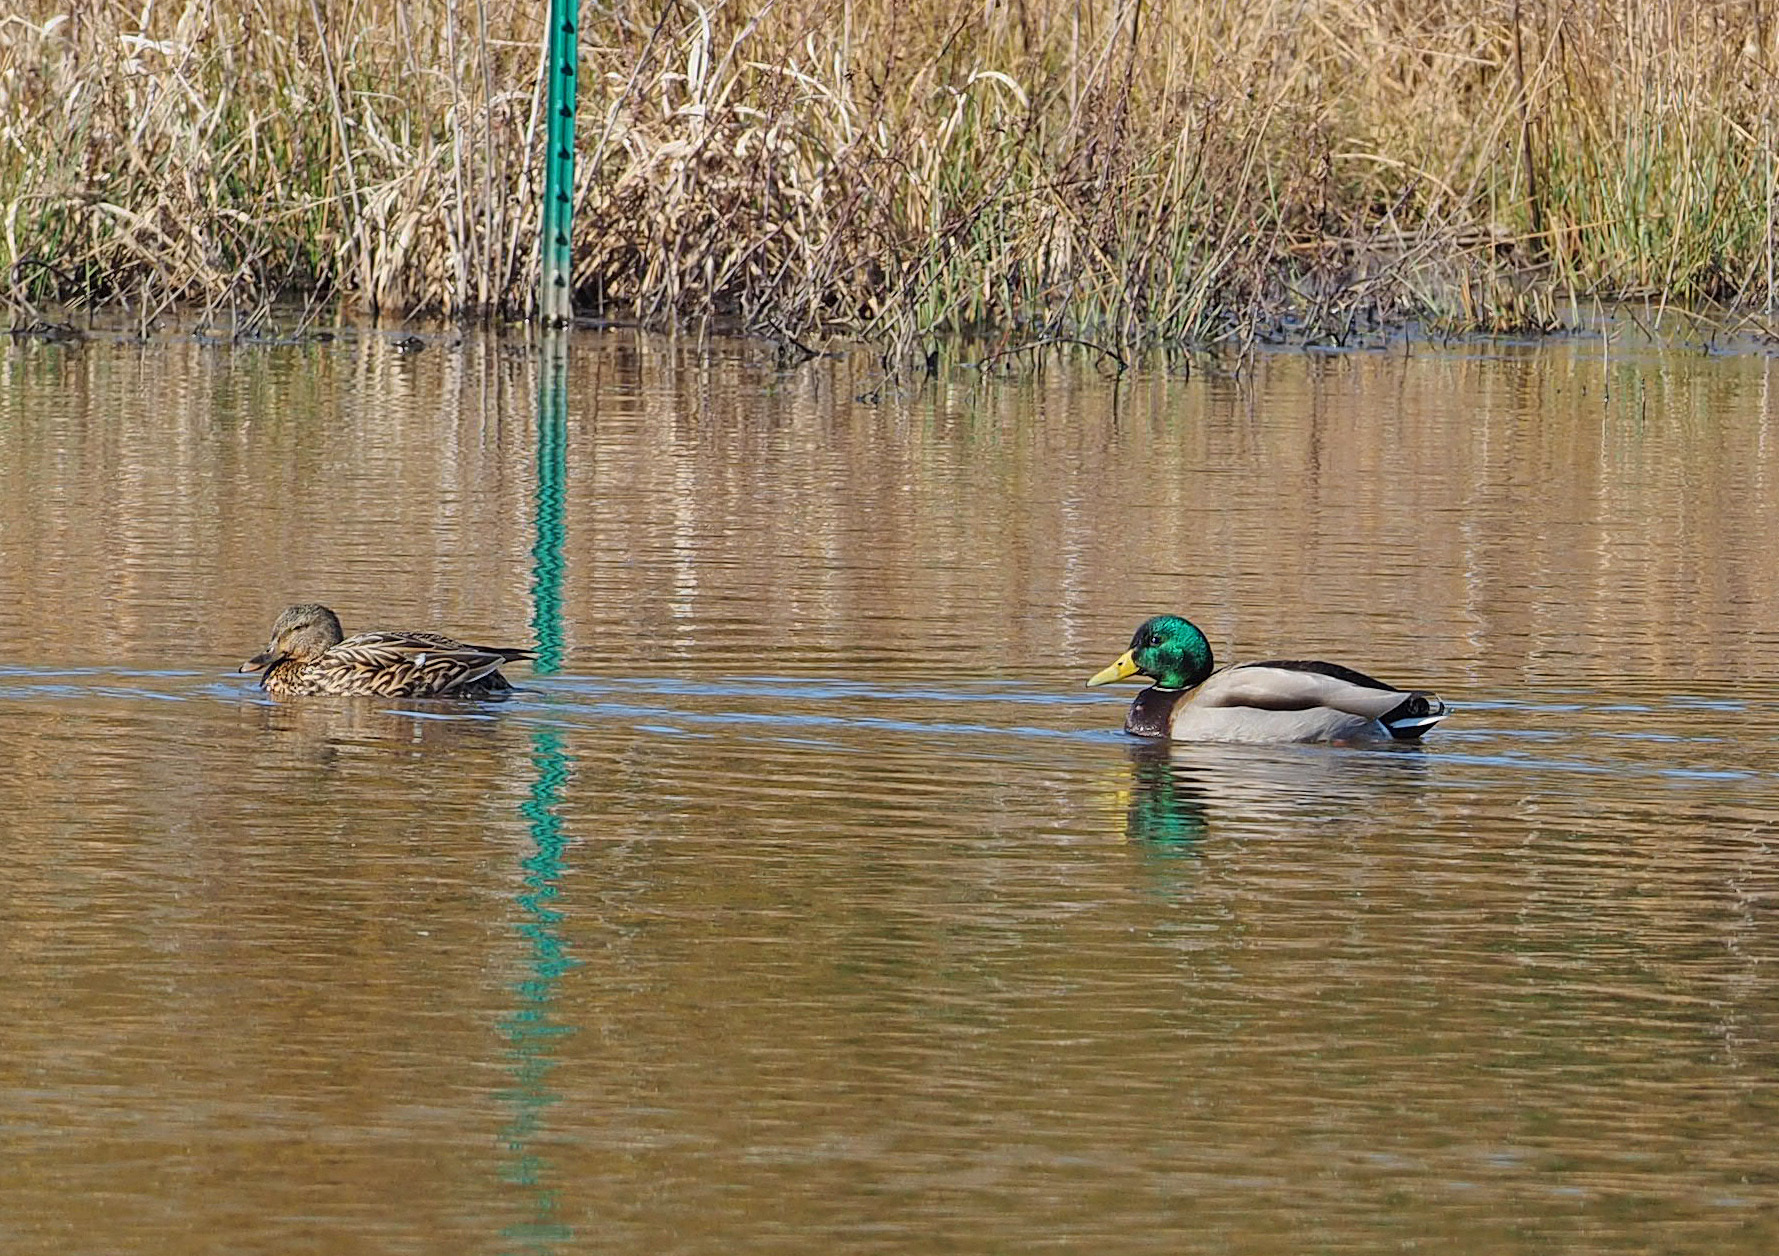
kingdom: Animalia
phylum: Chordata
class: Aves
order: Anseriformes
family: Anatidae
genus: Anas
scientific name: Anas platyrhynchos
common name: Mallard
